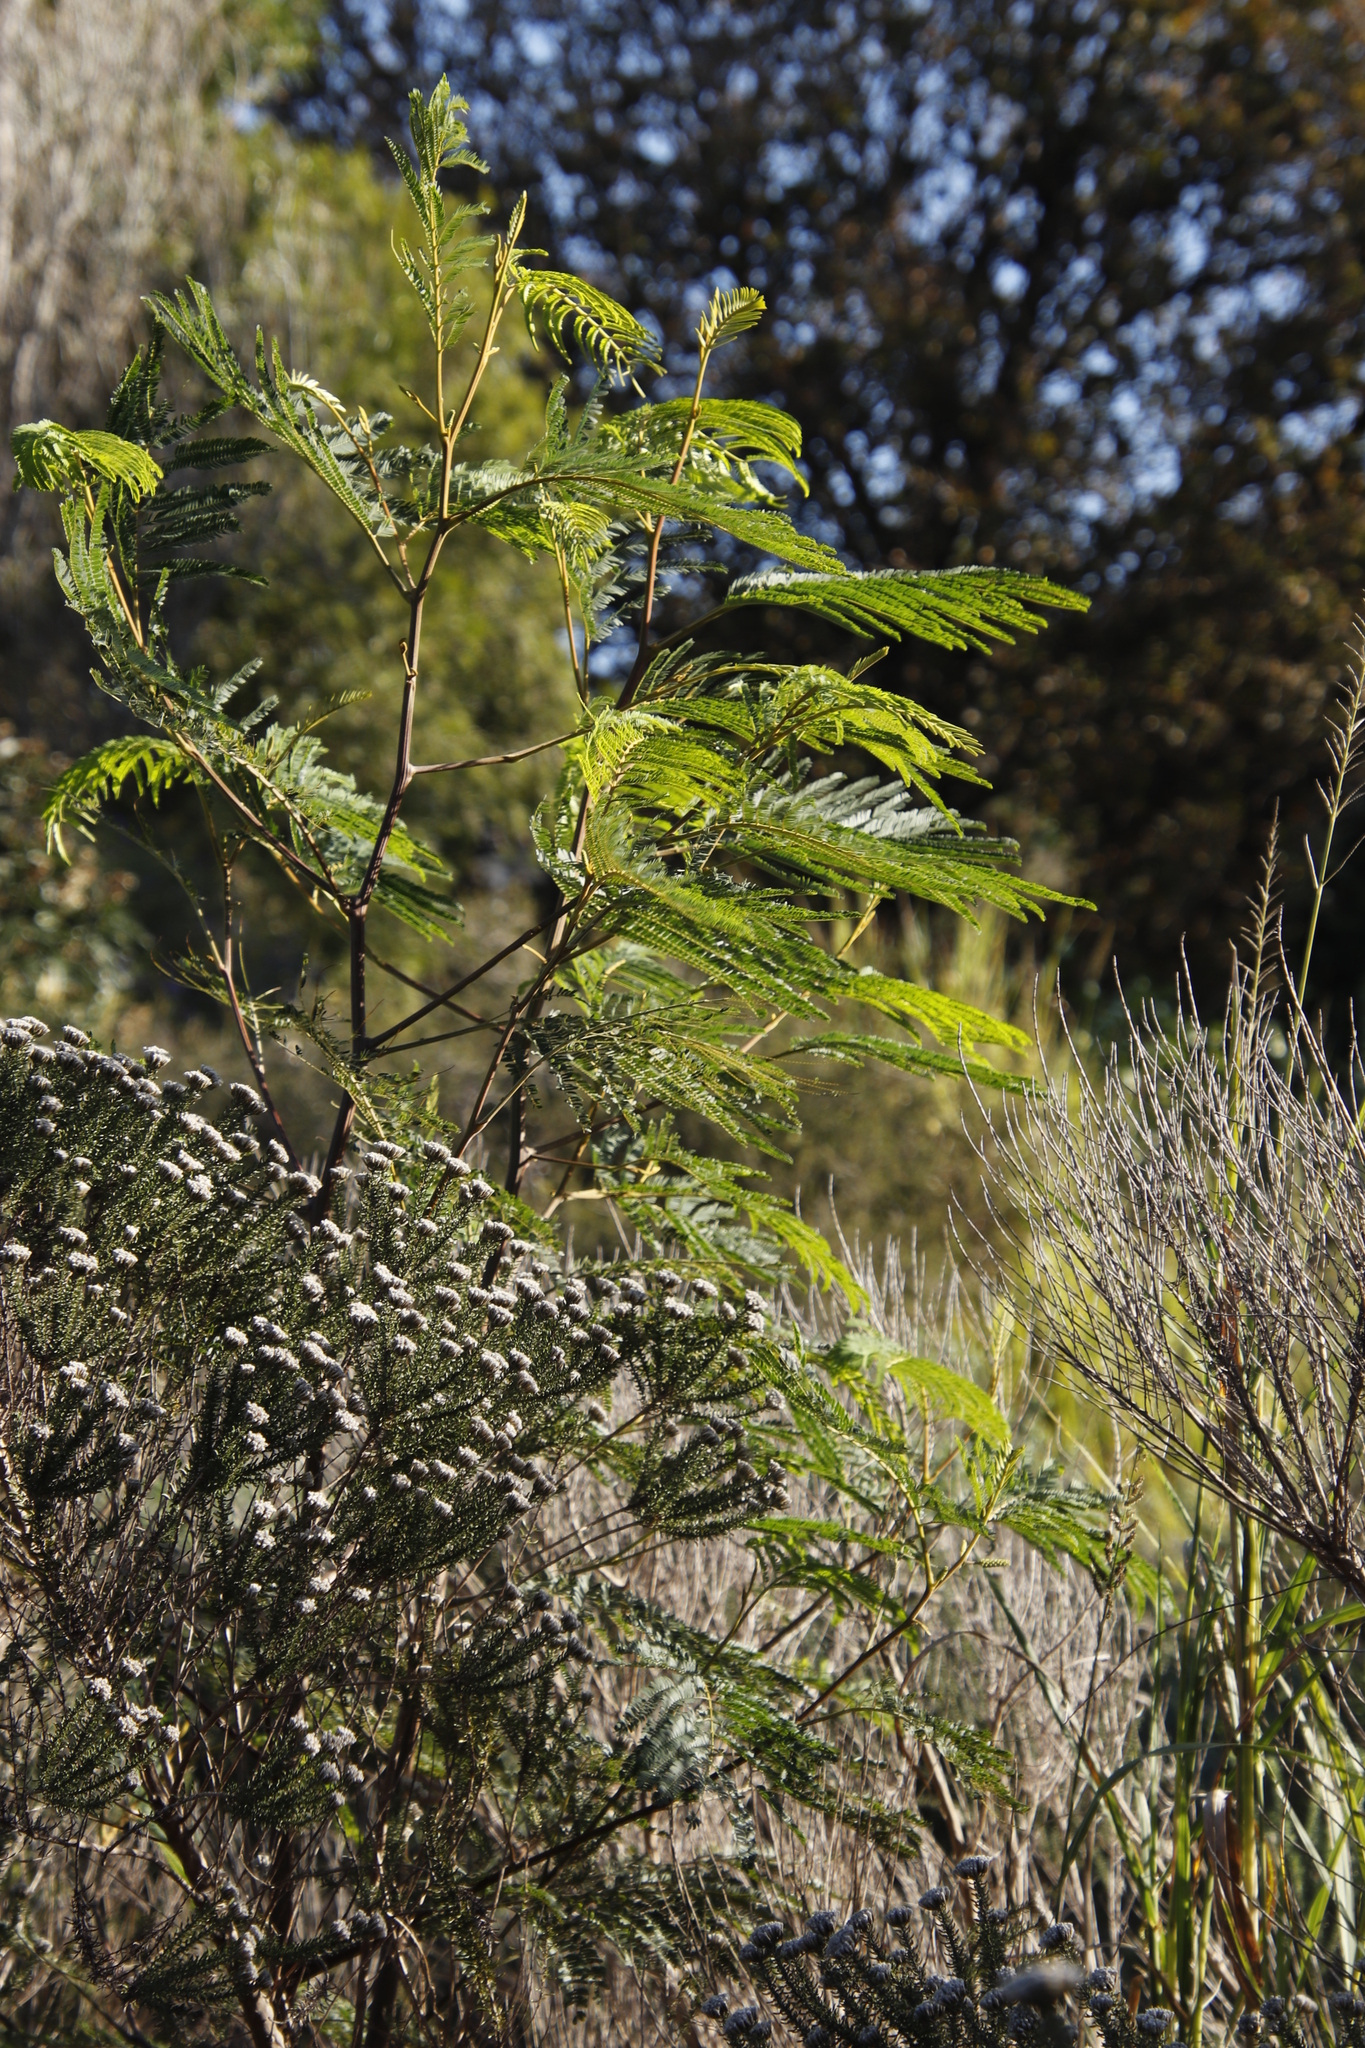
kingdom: Plantae
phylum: Tracheophyta
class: Magnoliopsida
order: Fabales
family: Fabaceae
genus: Paraserianthes
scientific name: Paraserianthes lophantha
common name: Plume albizia
